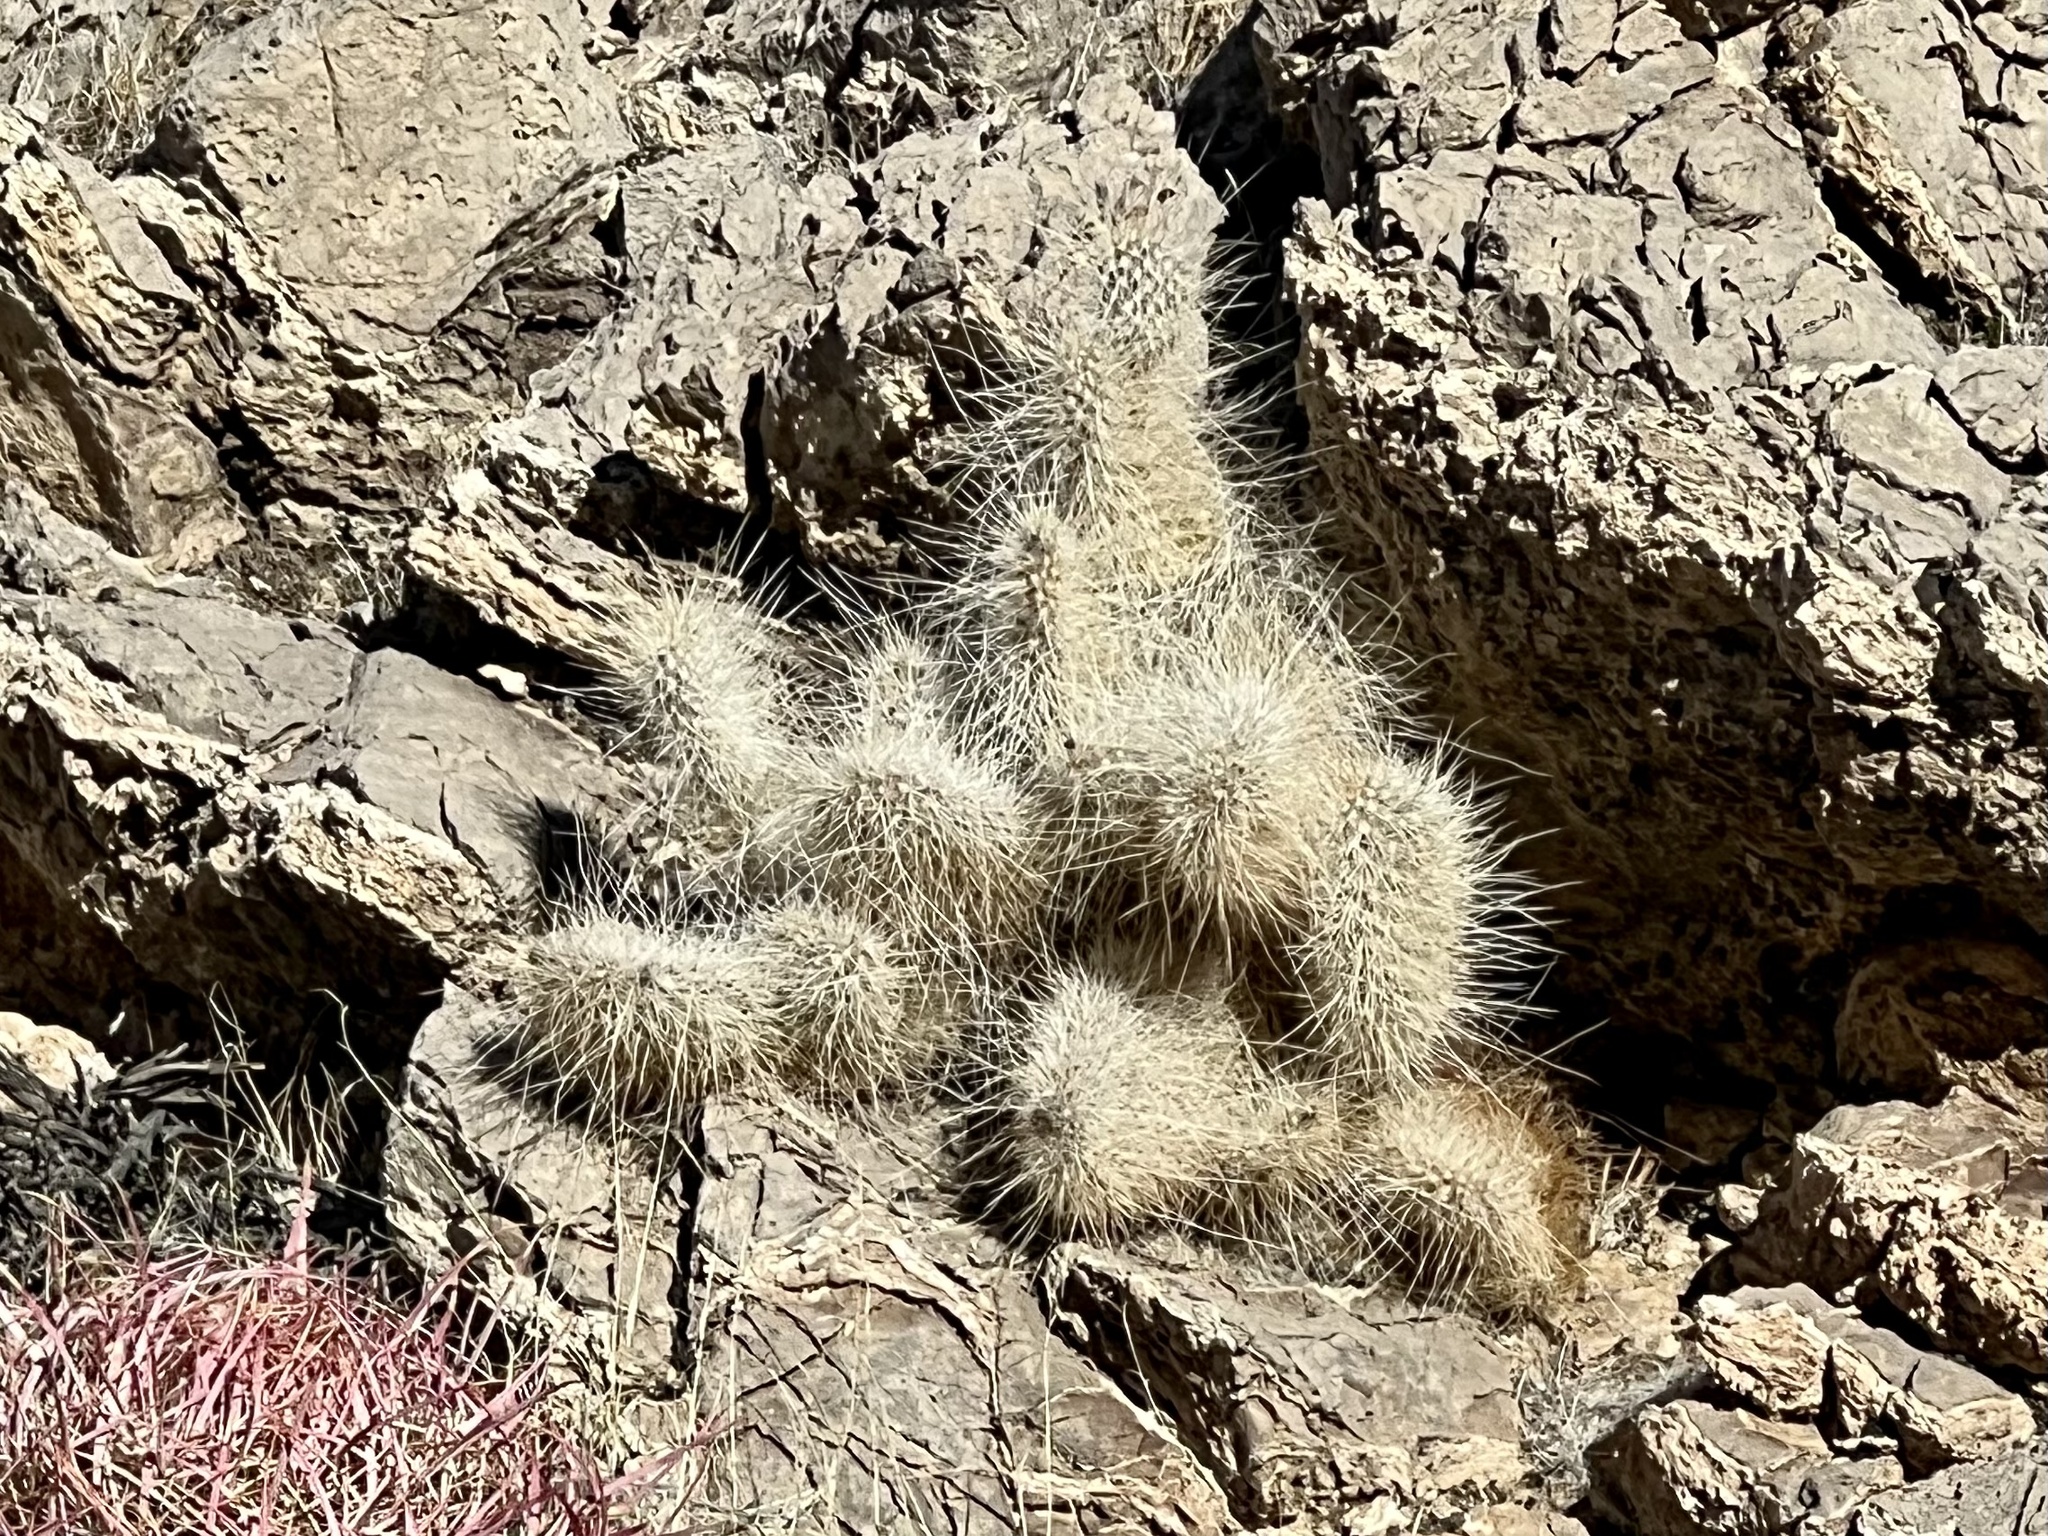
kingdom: Plantae
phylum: Tracheophyta
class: Magnoliopsida
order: Caryophyllales
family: Cactaceae
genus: Opuntia
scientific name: Opuntia polyacantha
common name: Plains prickly-pear
